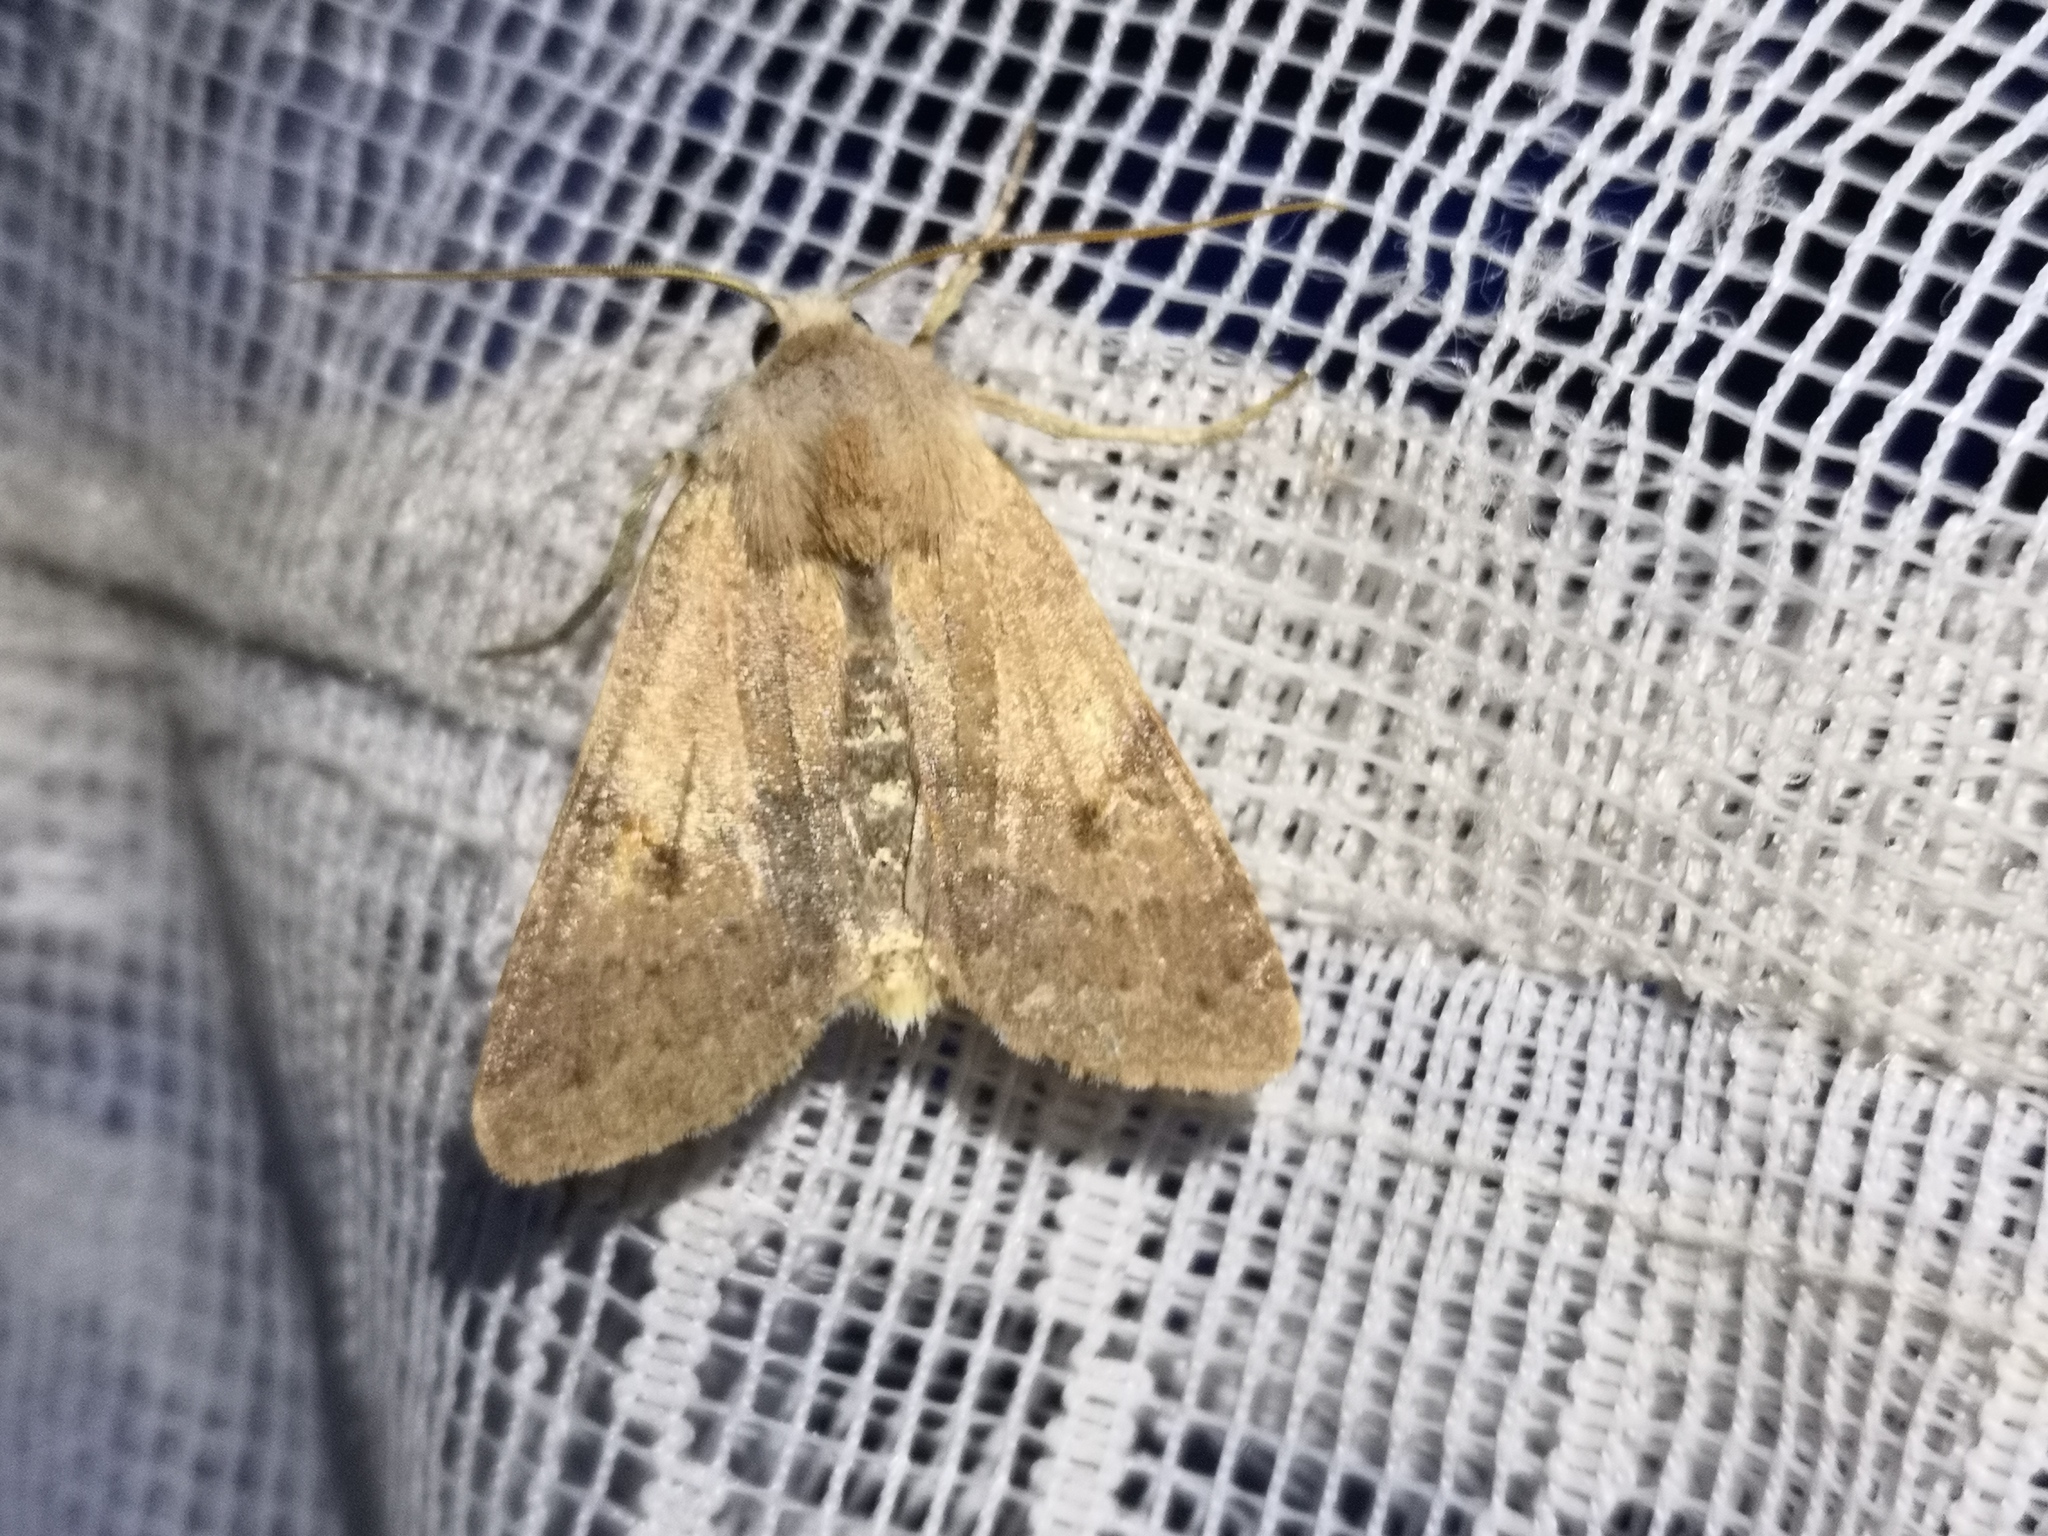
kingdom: Animalia
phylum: Arthropoda
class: Insecta
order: Lepidoptera
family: Noctuidae
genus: Agrochola
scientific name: Agrochola helvola
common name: Flounced chestnut
